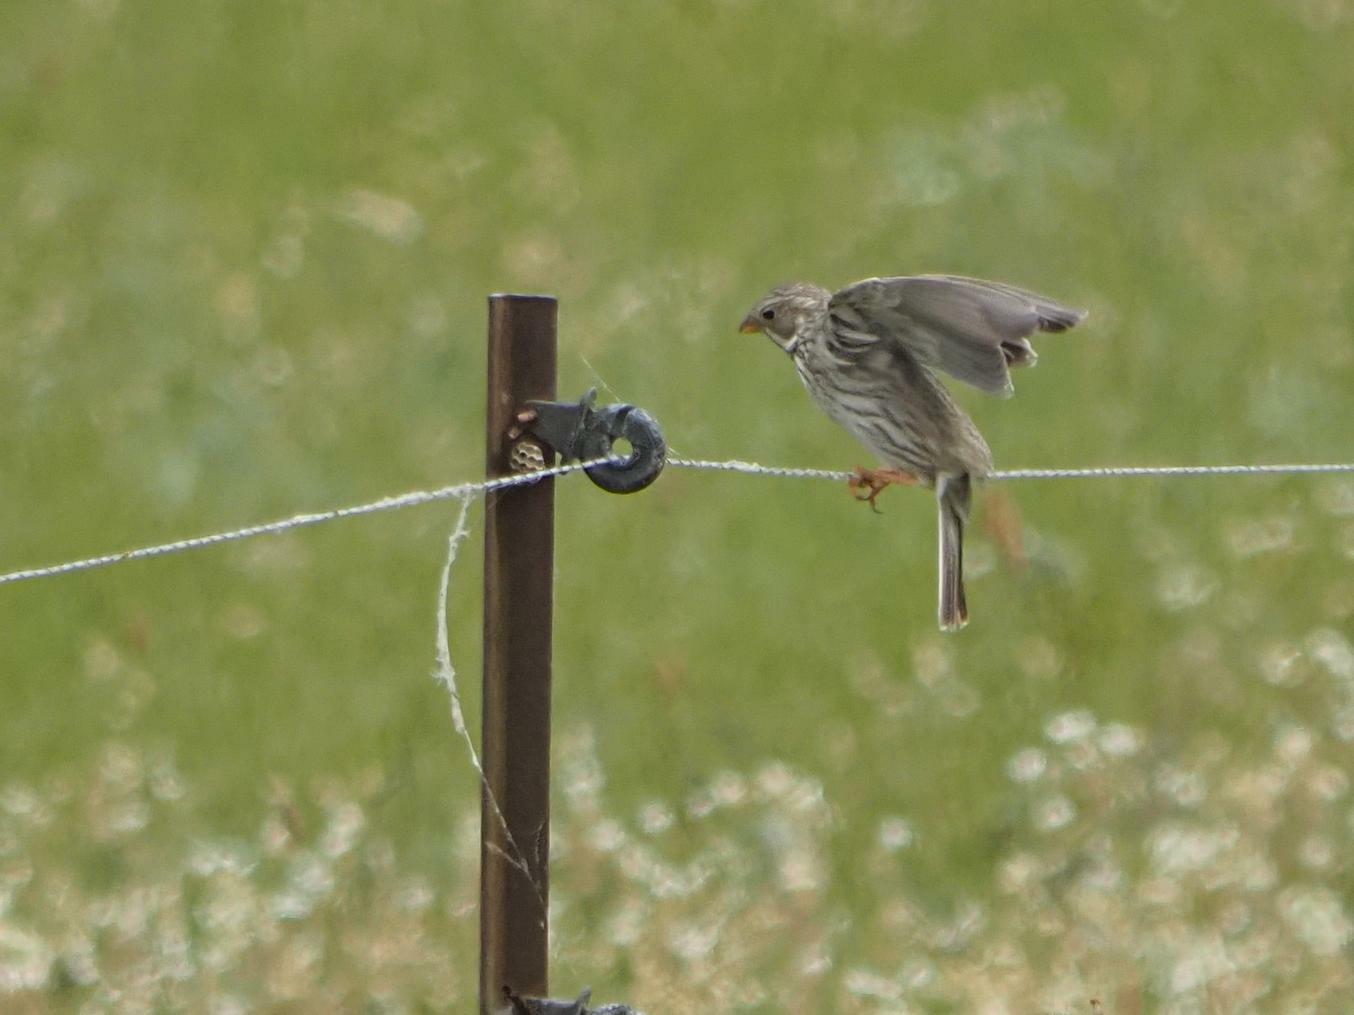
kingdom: Animalia
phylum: Chordata
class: Aves
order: Passeriformes
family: Emberizidae
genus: Emberiza
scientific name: Emberiza calandra
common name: Corn bunting
